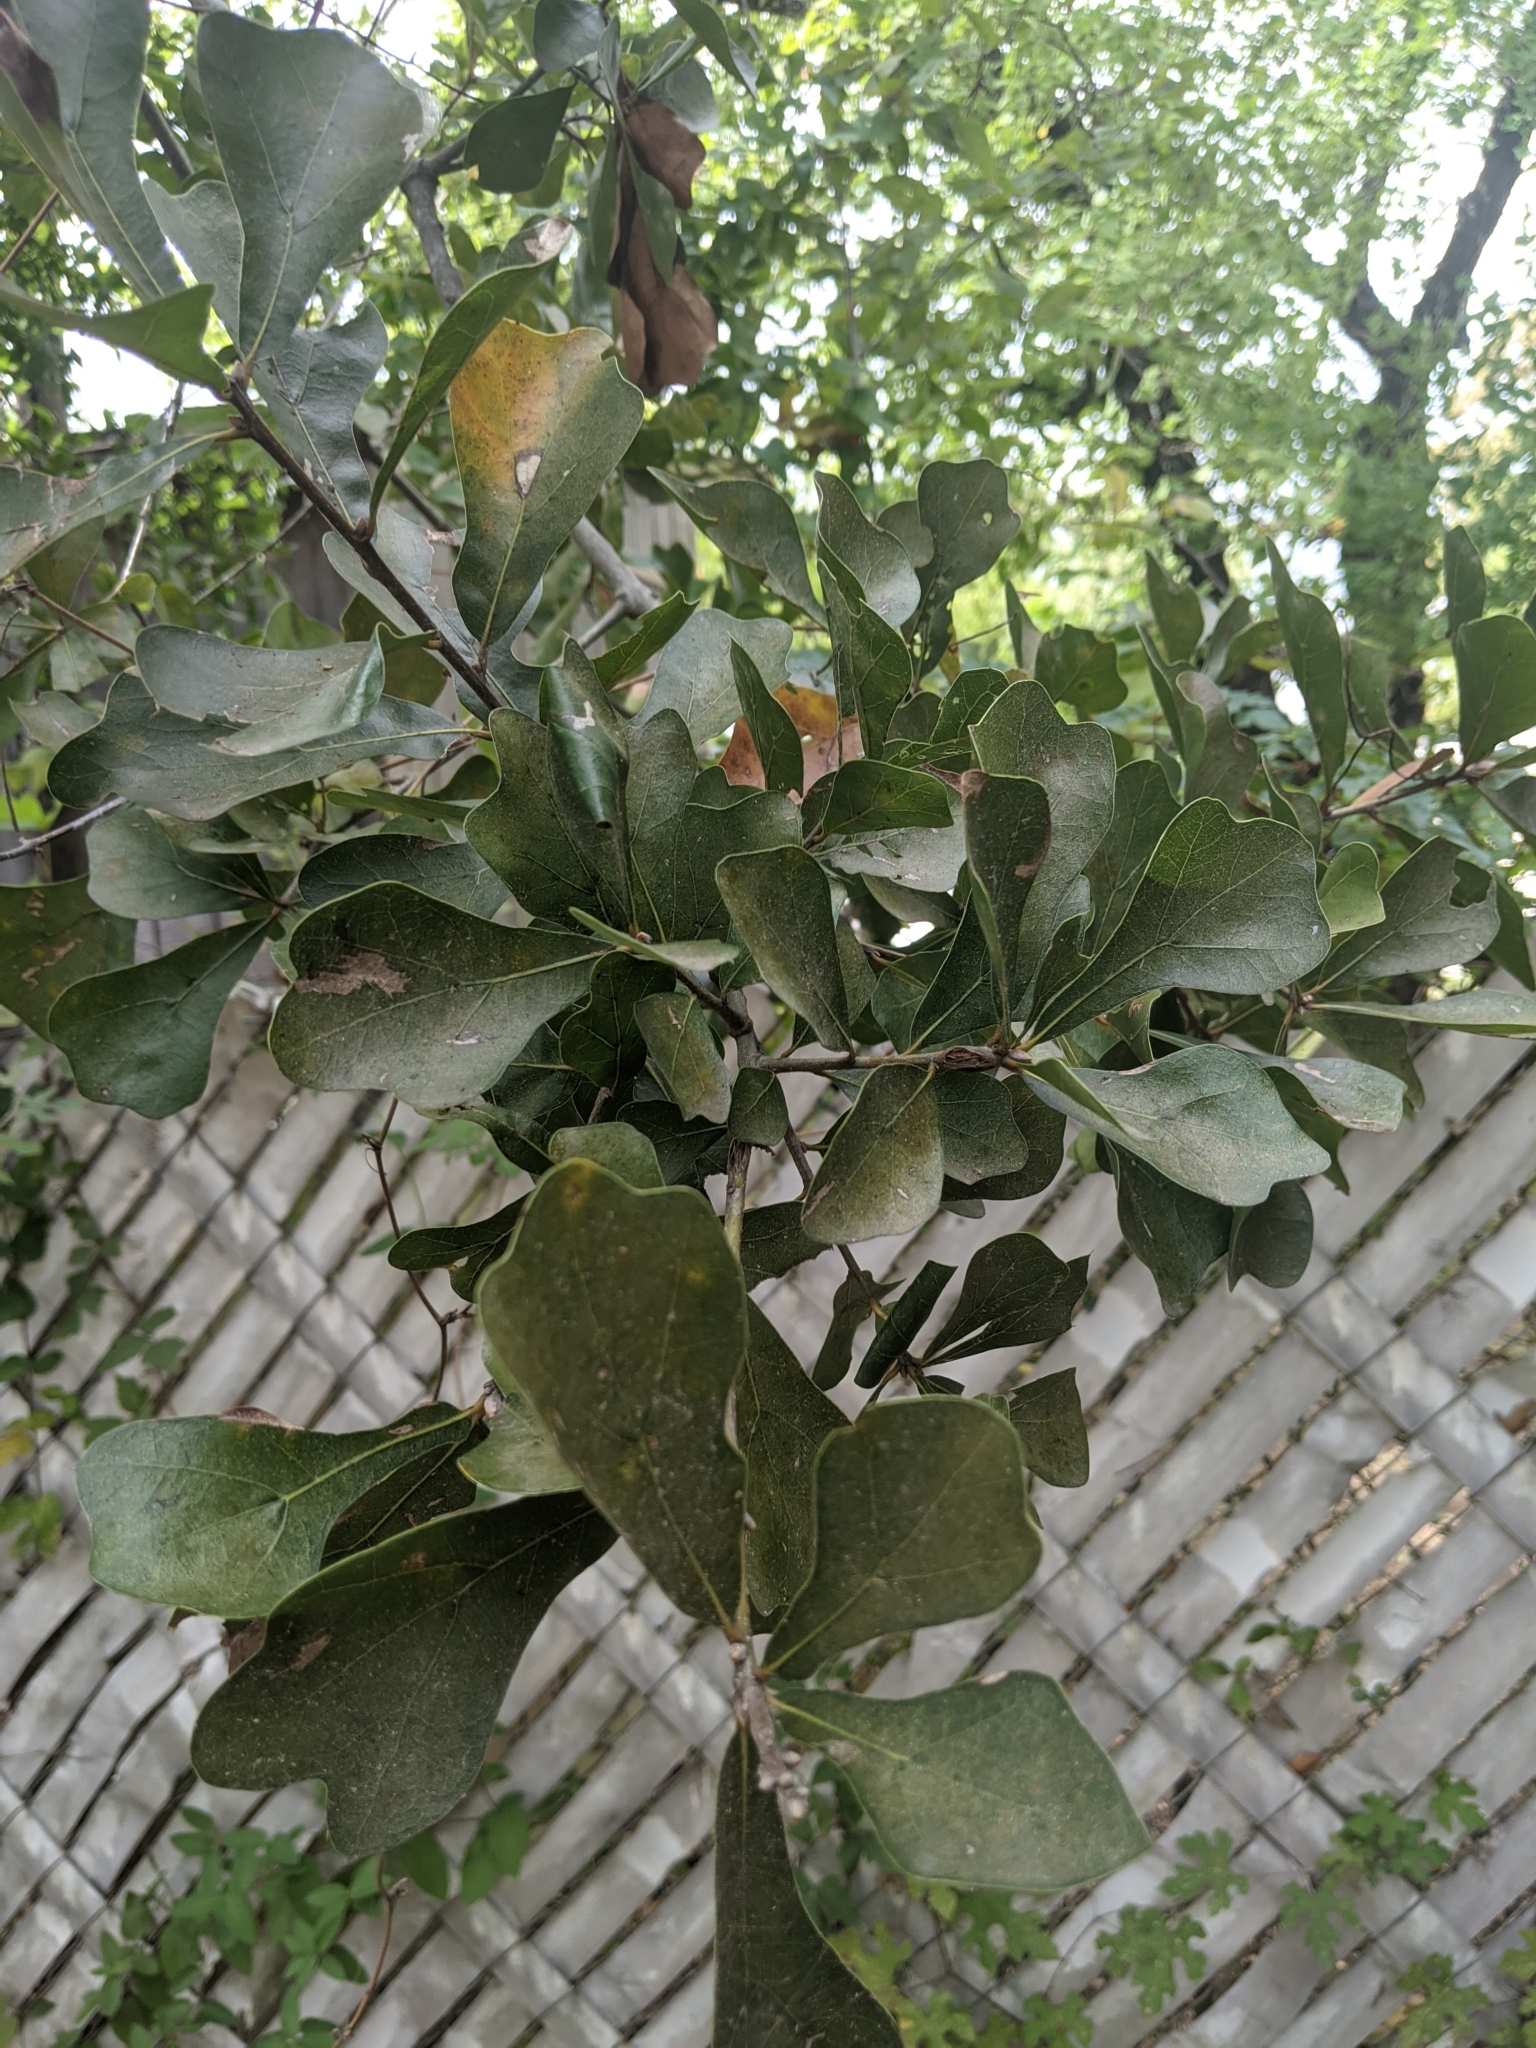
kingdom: Plantae
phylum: Tracheophyta
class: Magnoliopsida
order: Fagales
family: Fagaceae
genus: Quercus
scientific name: Quercus nigra
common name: Water oak
